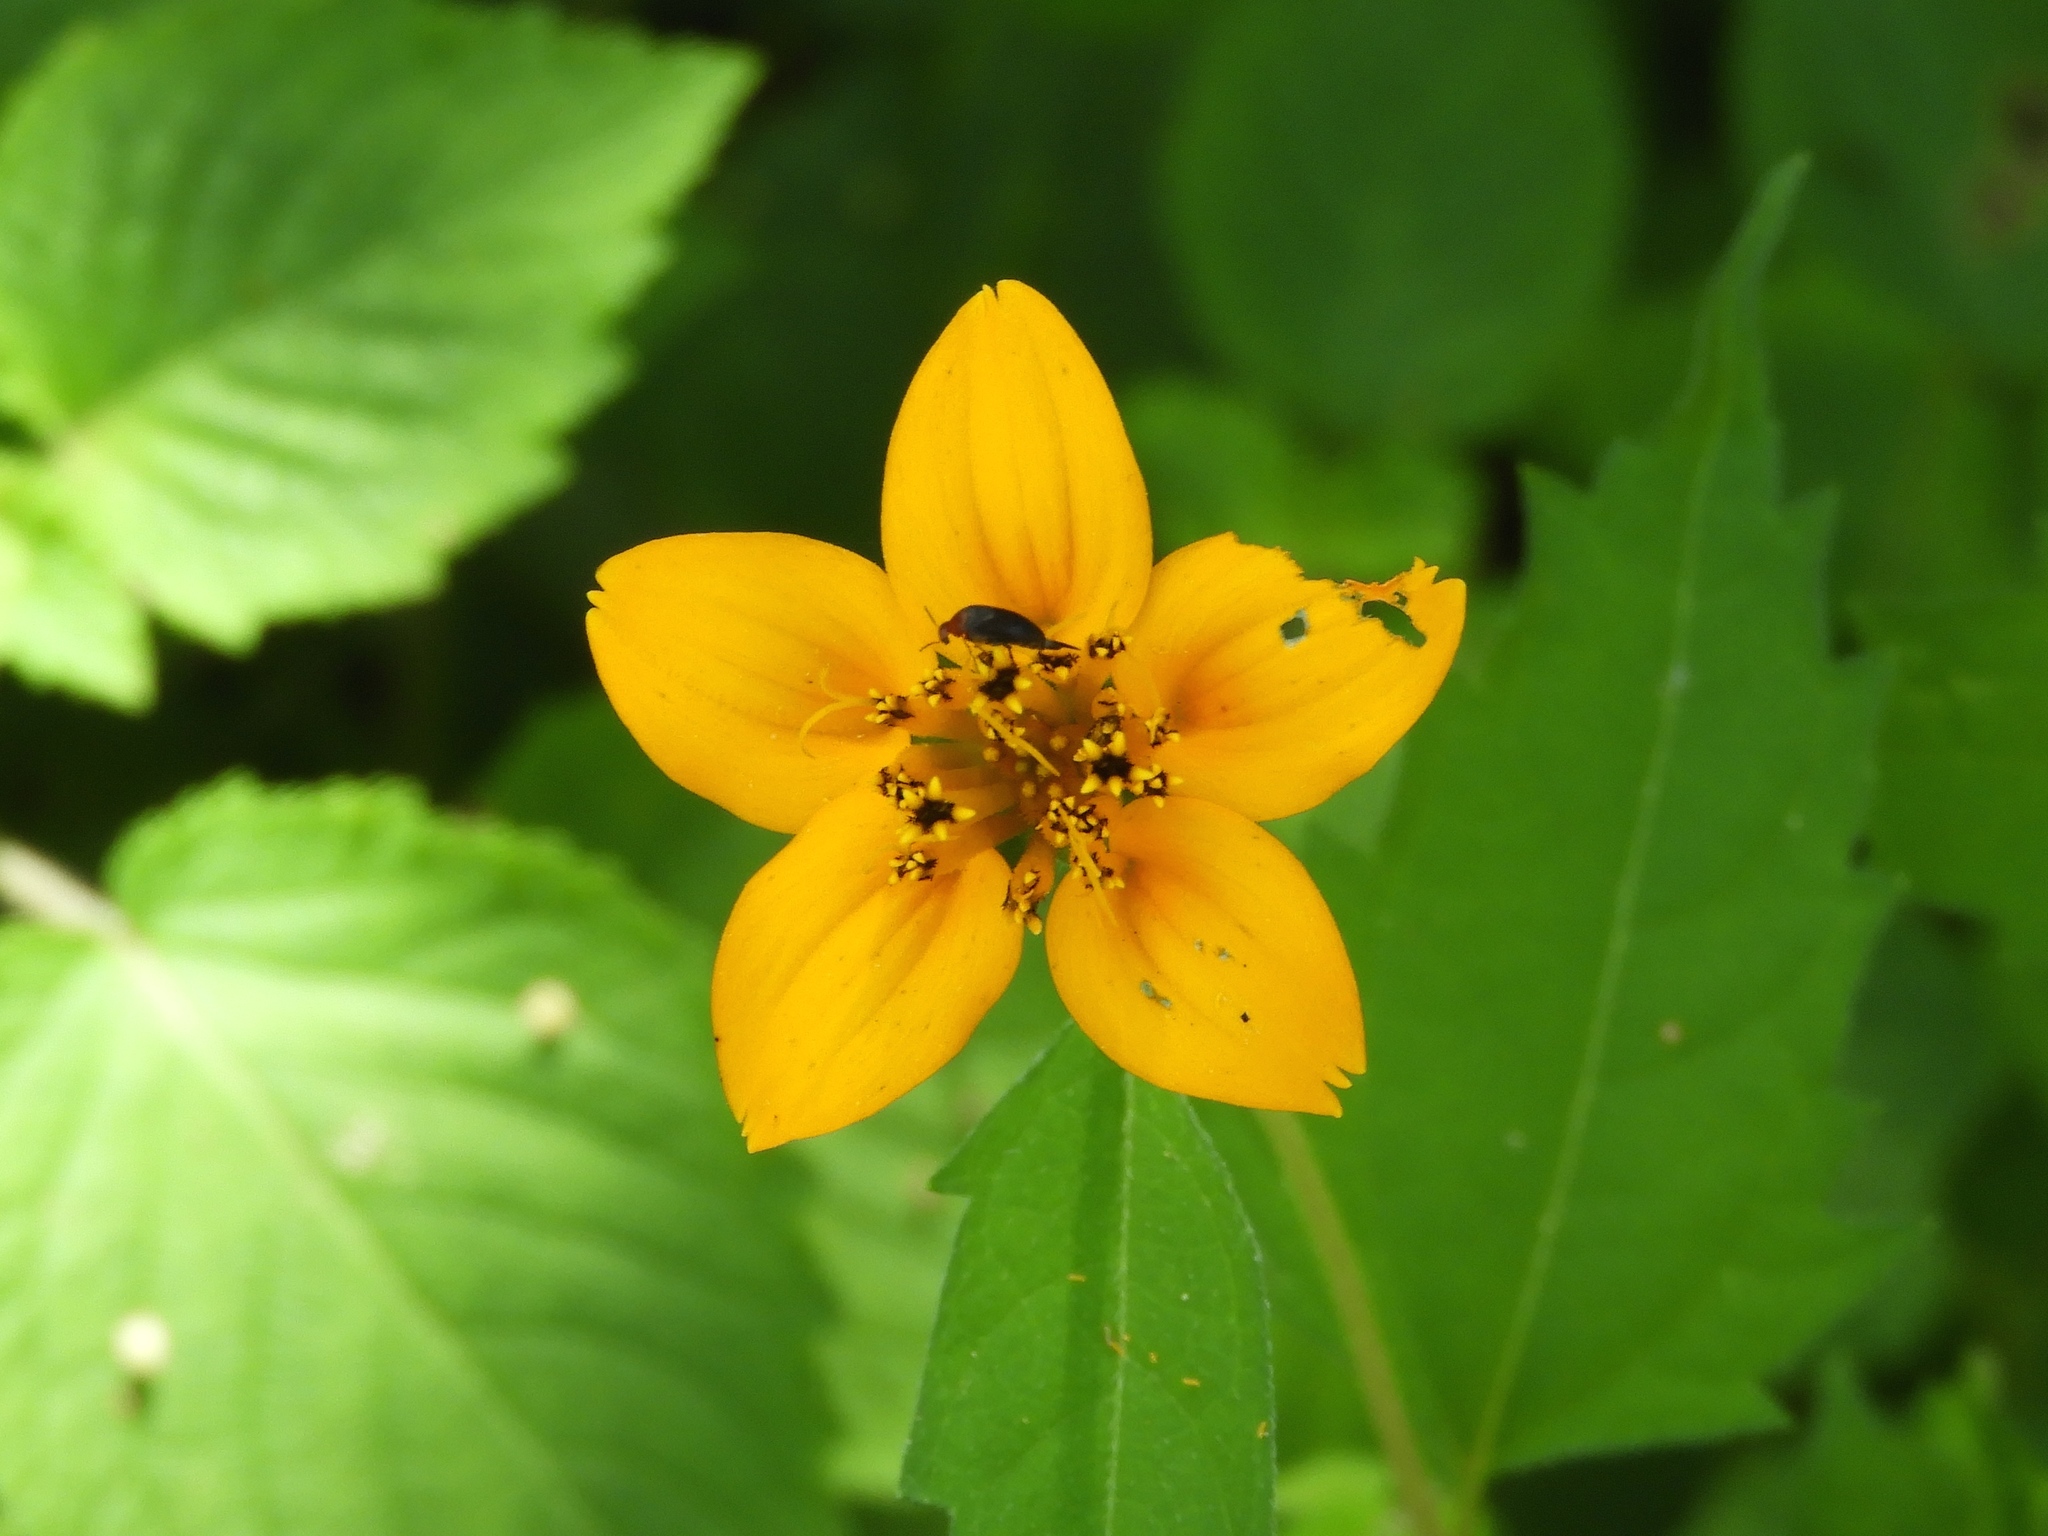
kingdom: Plantae
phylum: Tracheophyta
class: Magnoliopsida
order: Asterales
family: Asteraceae
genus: Sclerocarpus
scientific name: Sclerocarpus divaricatus
